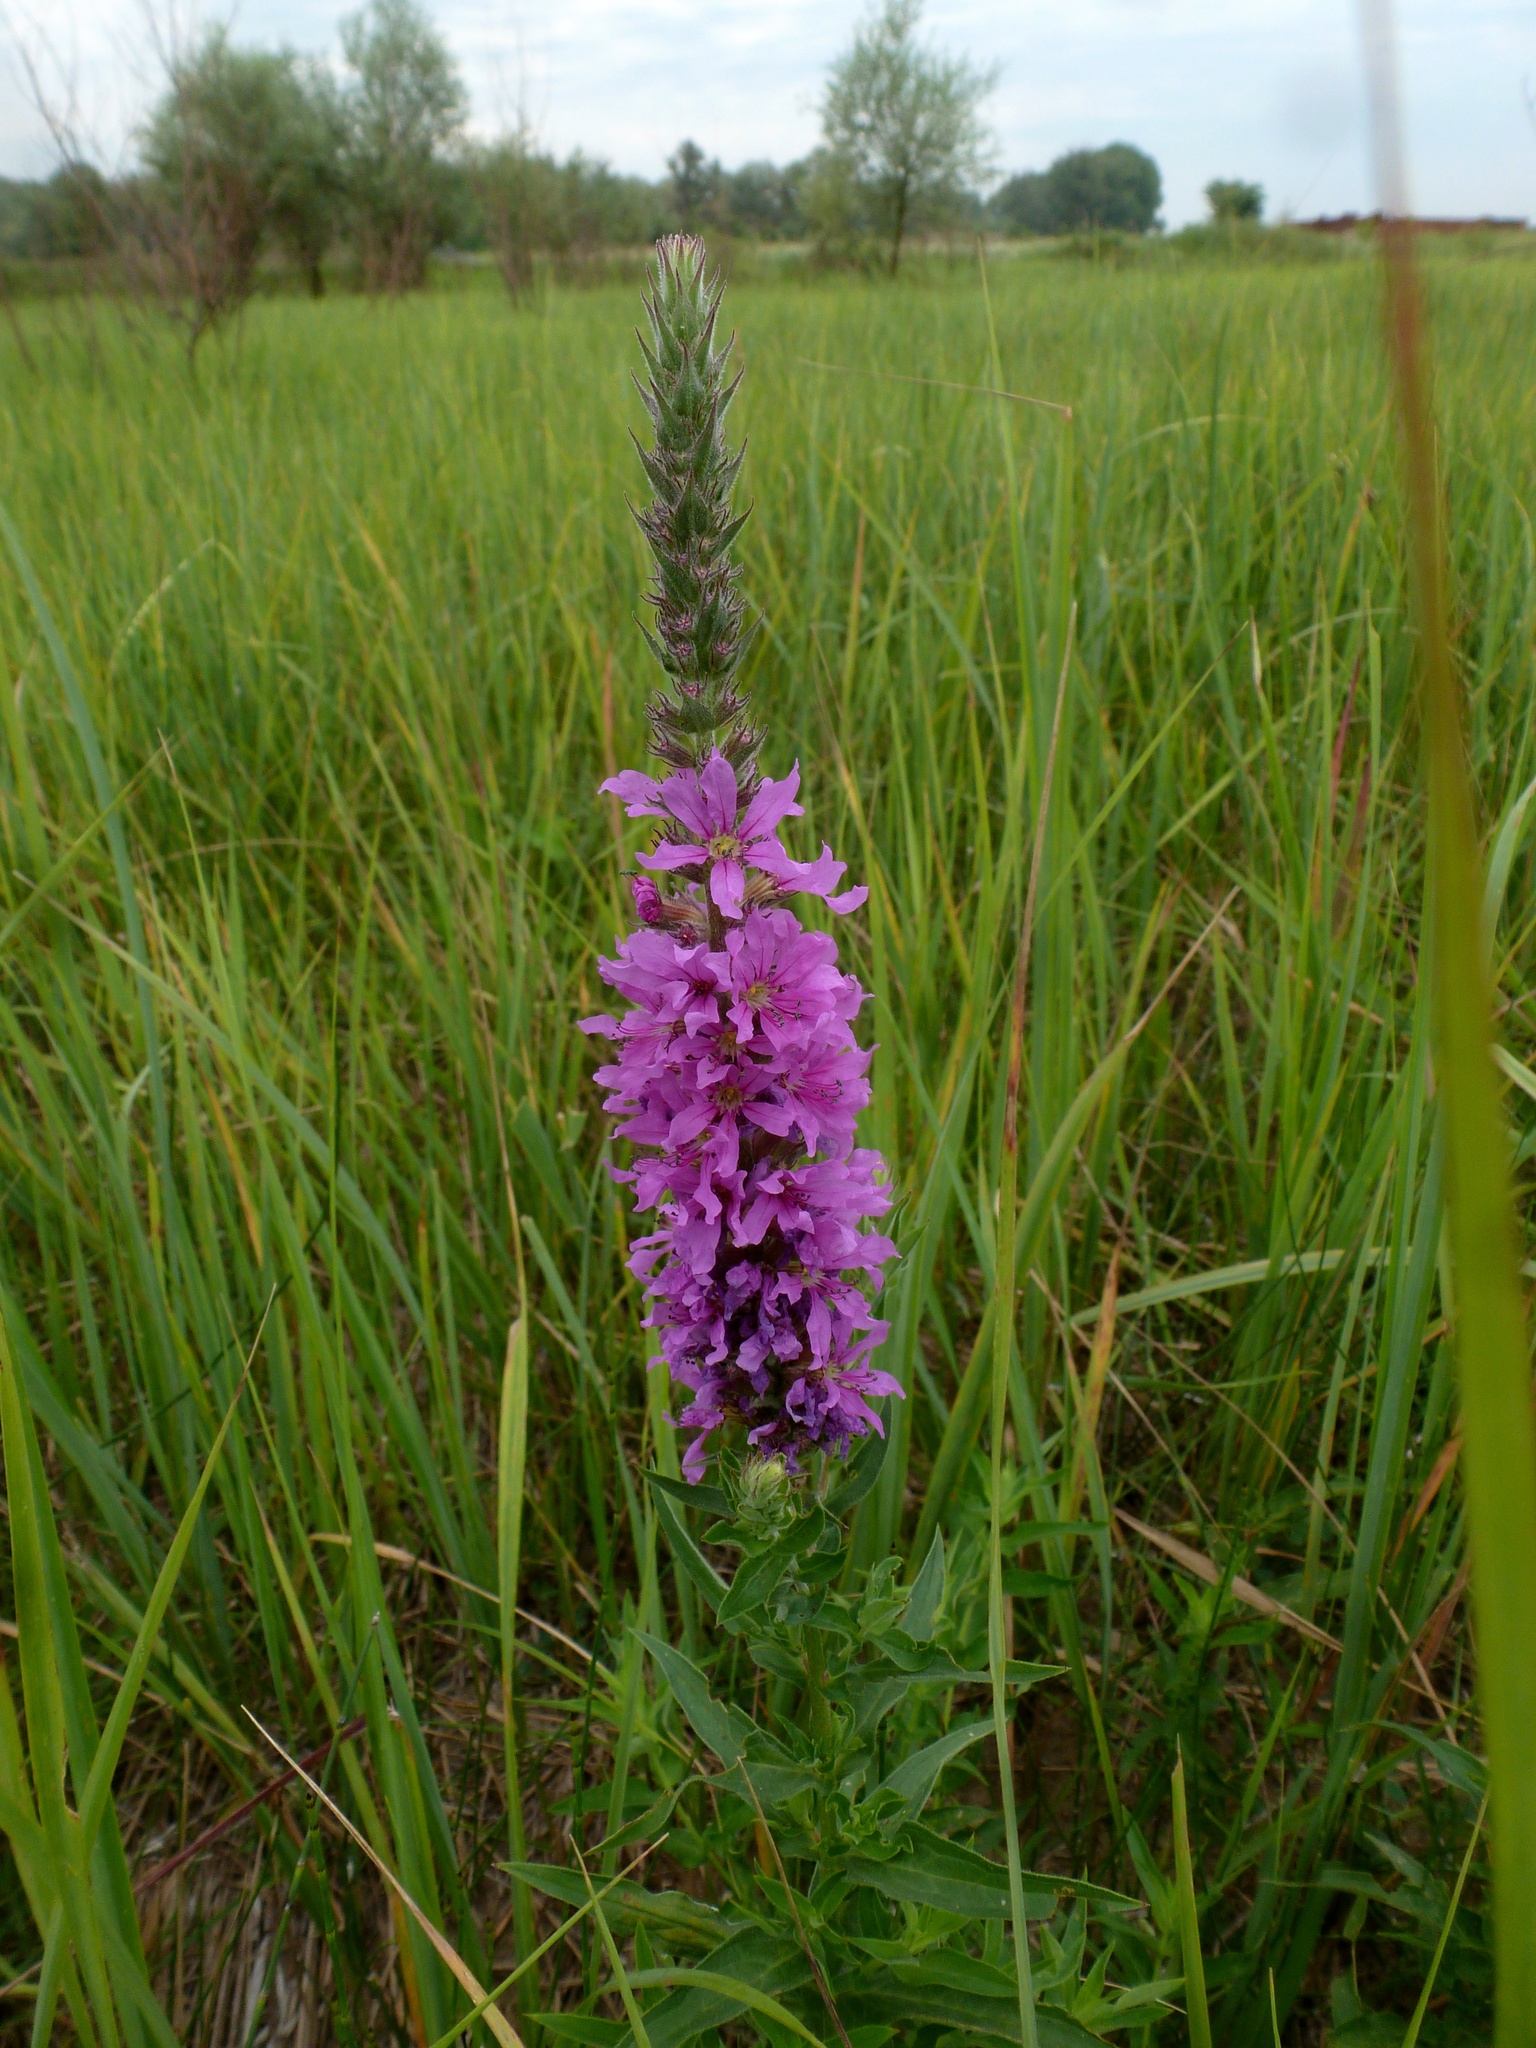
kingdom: Plantae
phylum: Tracheophyta
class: Magnoliopsida
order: Myrtales
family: Lythraceae
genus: Lythrum
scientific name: Lythrum salicaria
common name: Purple loosestrife
